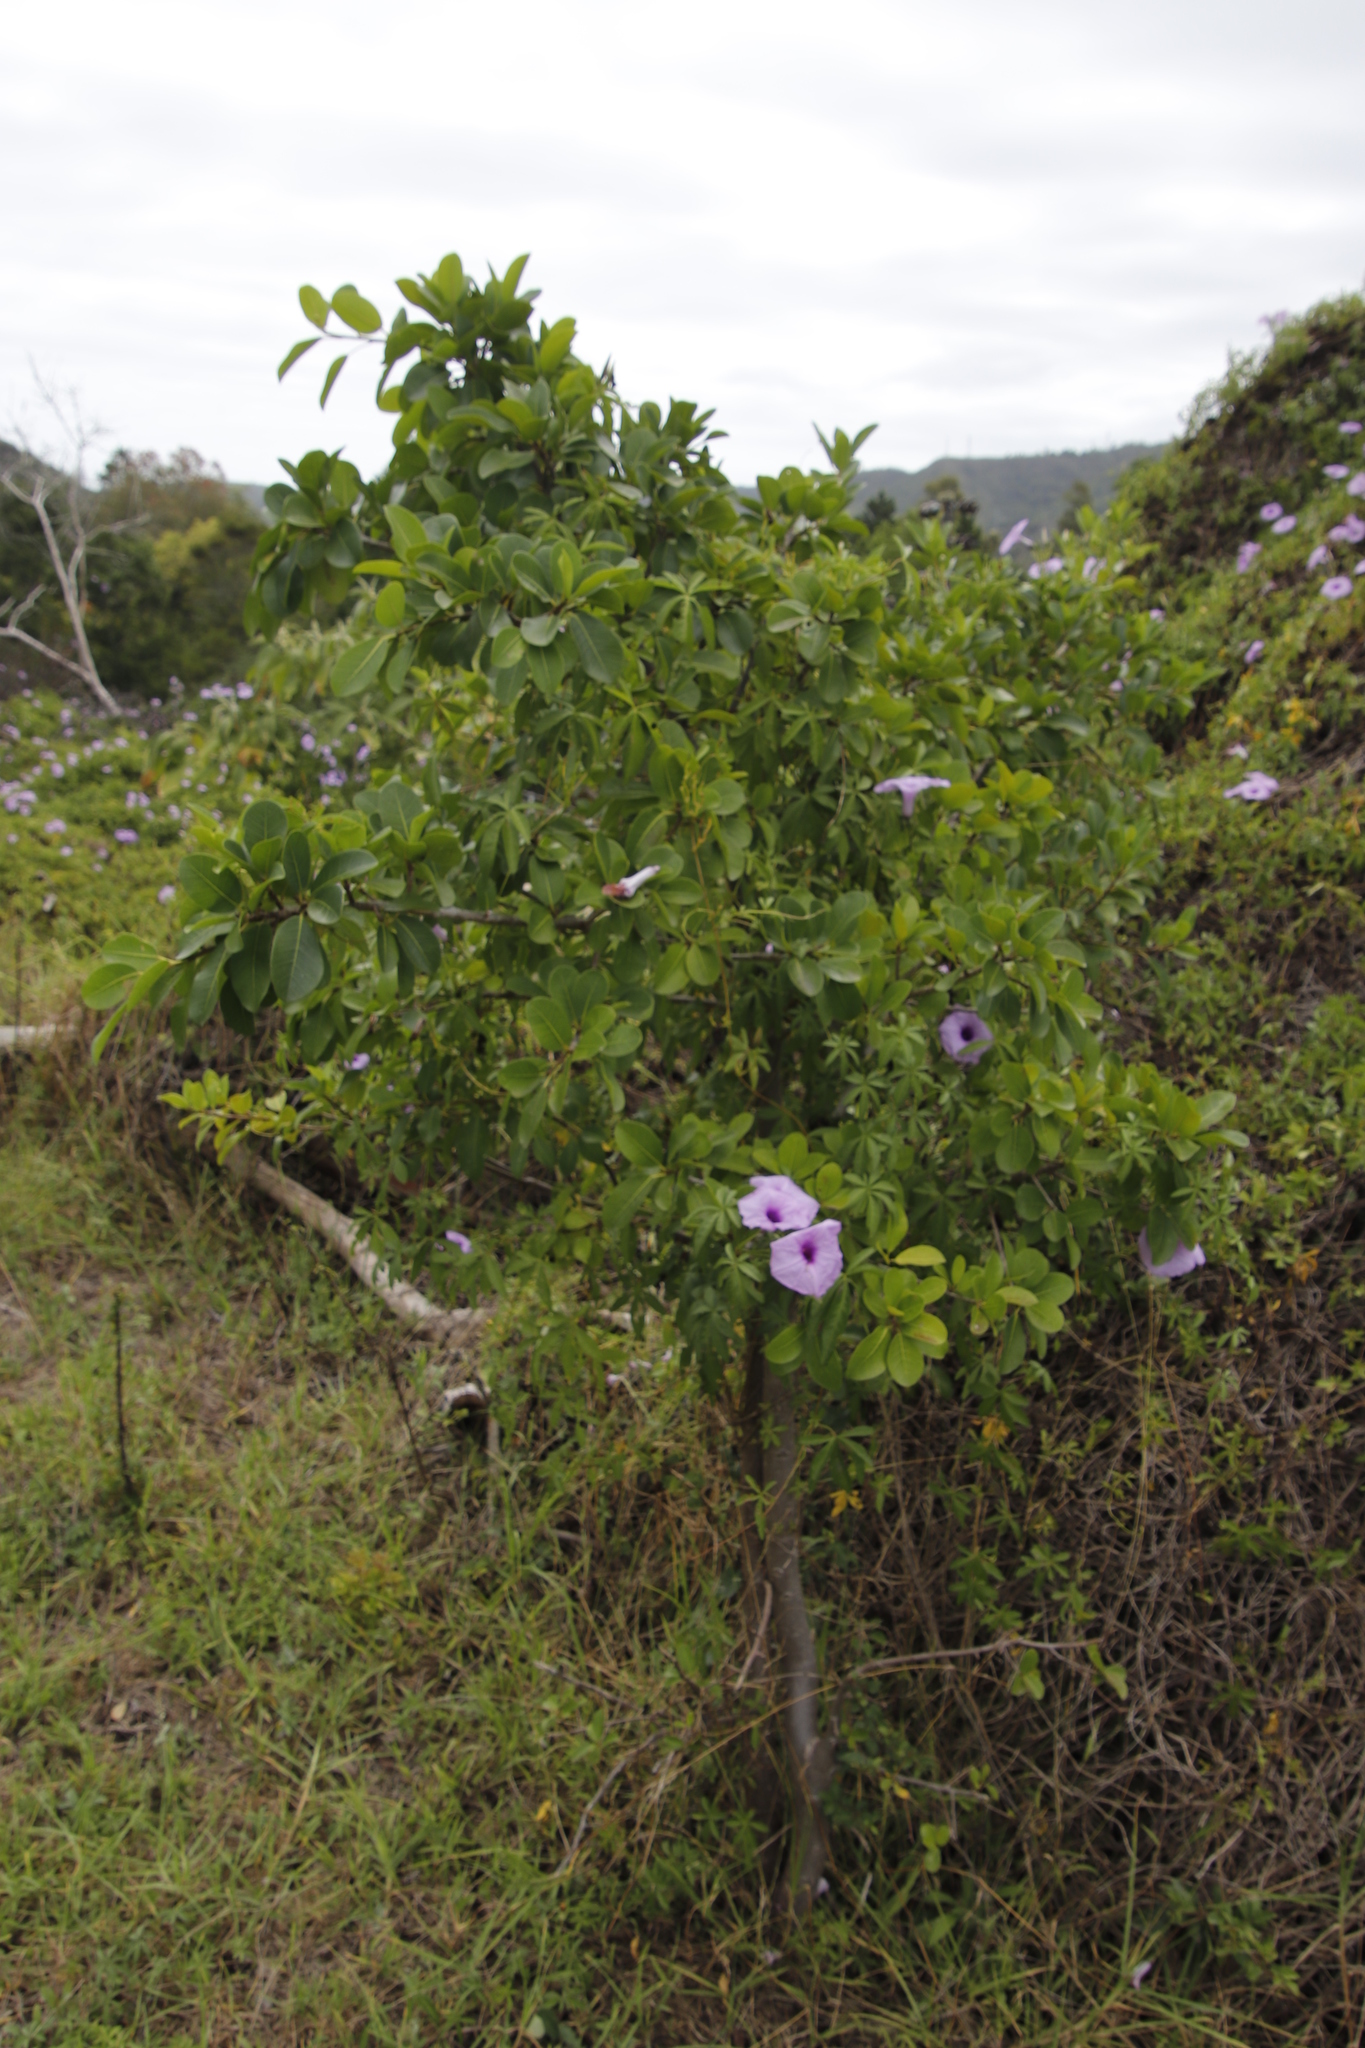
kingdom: Plantae
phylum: Tracheophyta
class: Magnoliopsida
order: Rosales
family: Moraceae
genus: Ficus
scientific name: Ficus thonningii
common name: Fig
